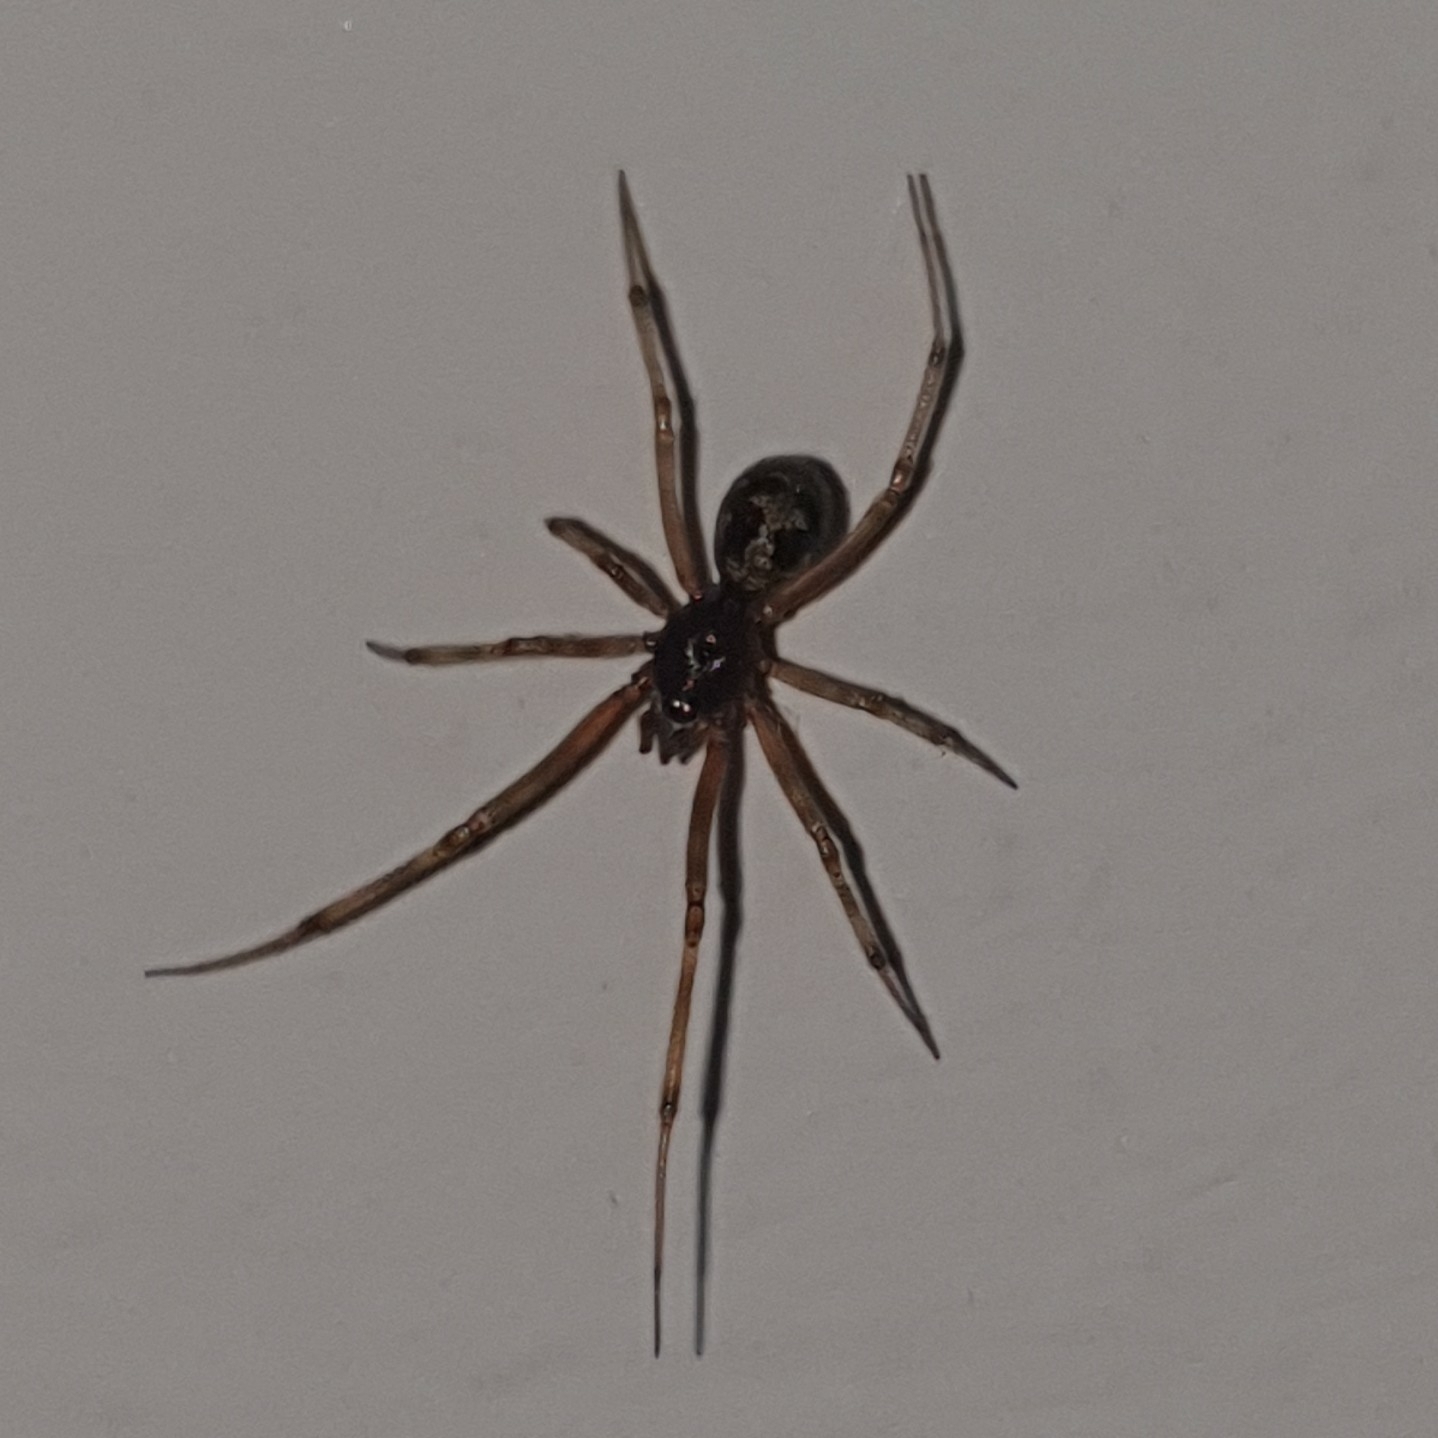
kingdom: Animalia
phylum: Arthropoda
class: Arachnida
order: Araneae
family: Theridiidae
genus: Steatoda
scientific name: Steatoda triangulosa
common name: Triangulate bud spider
